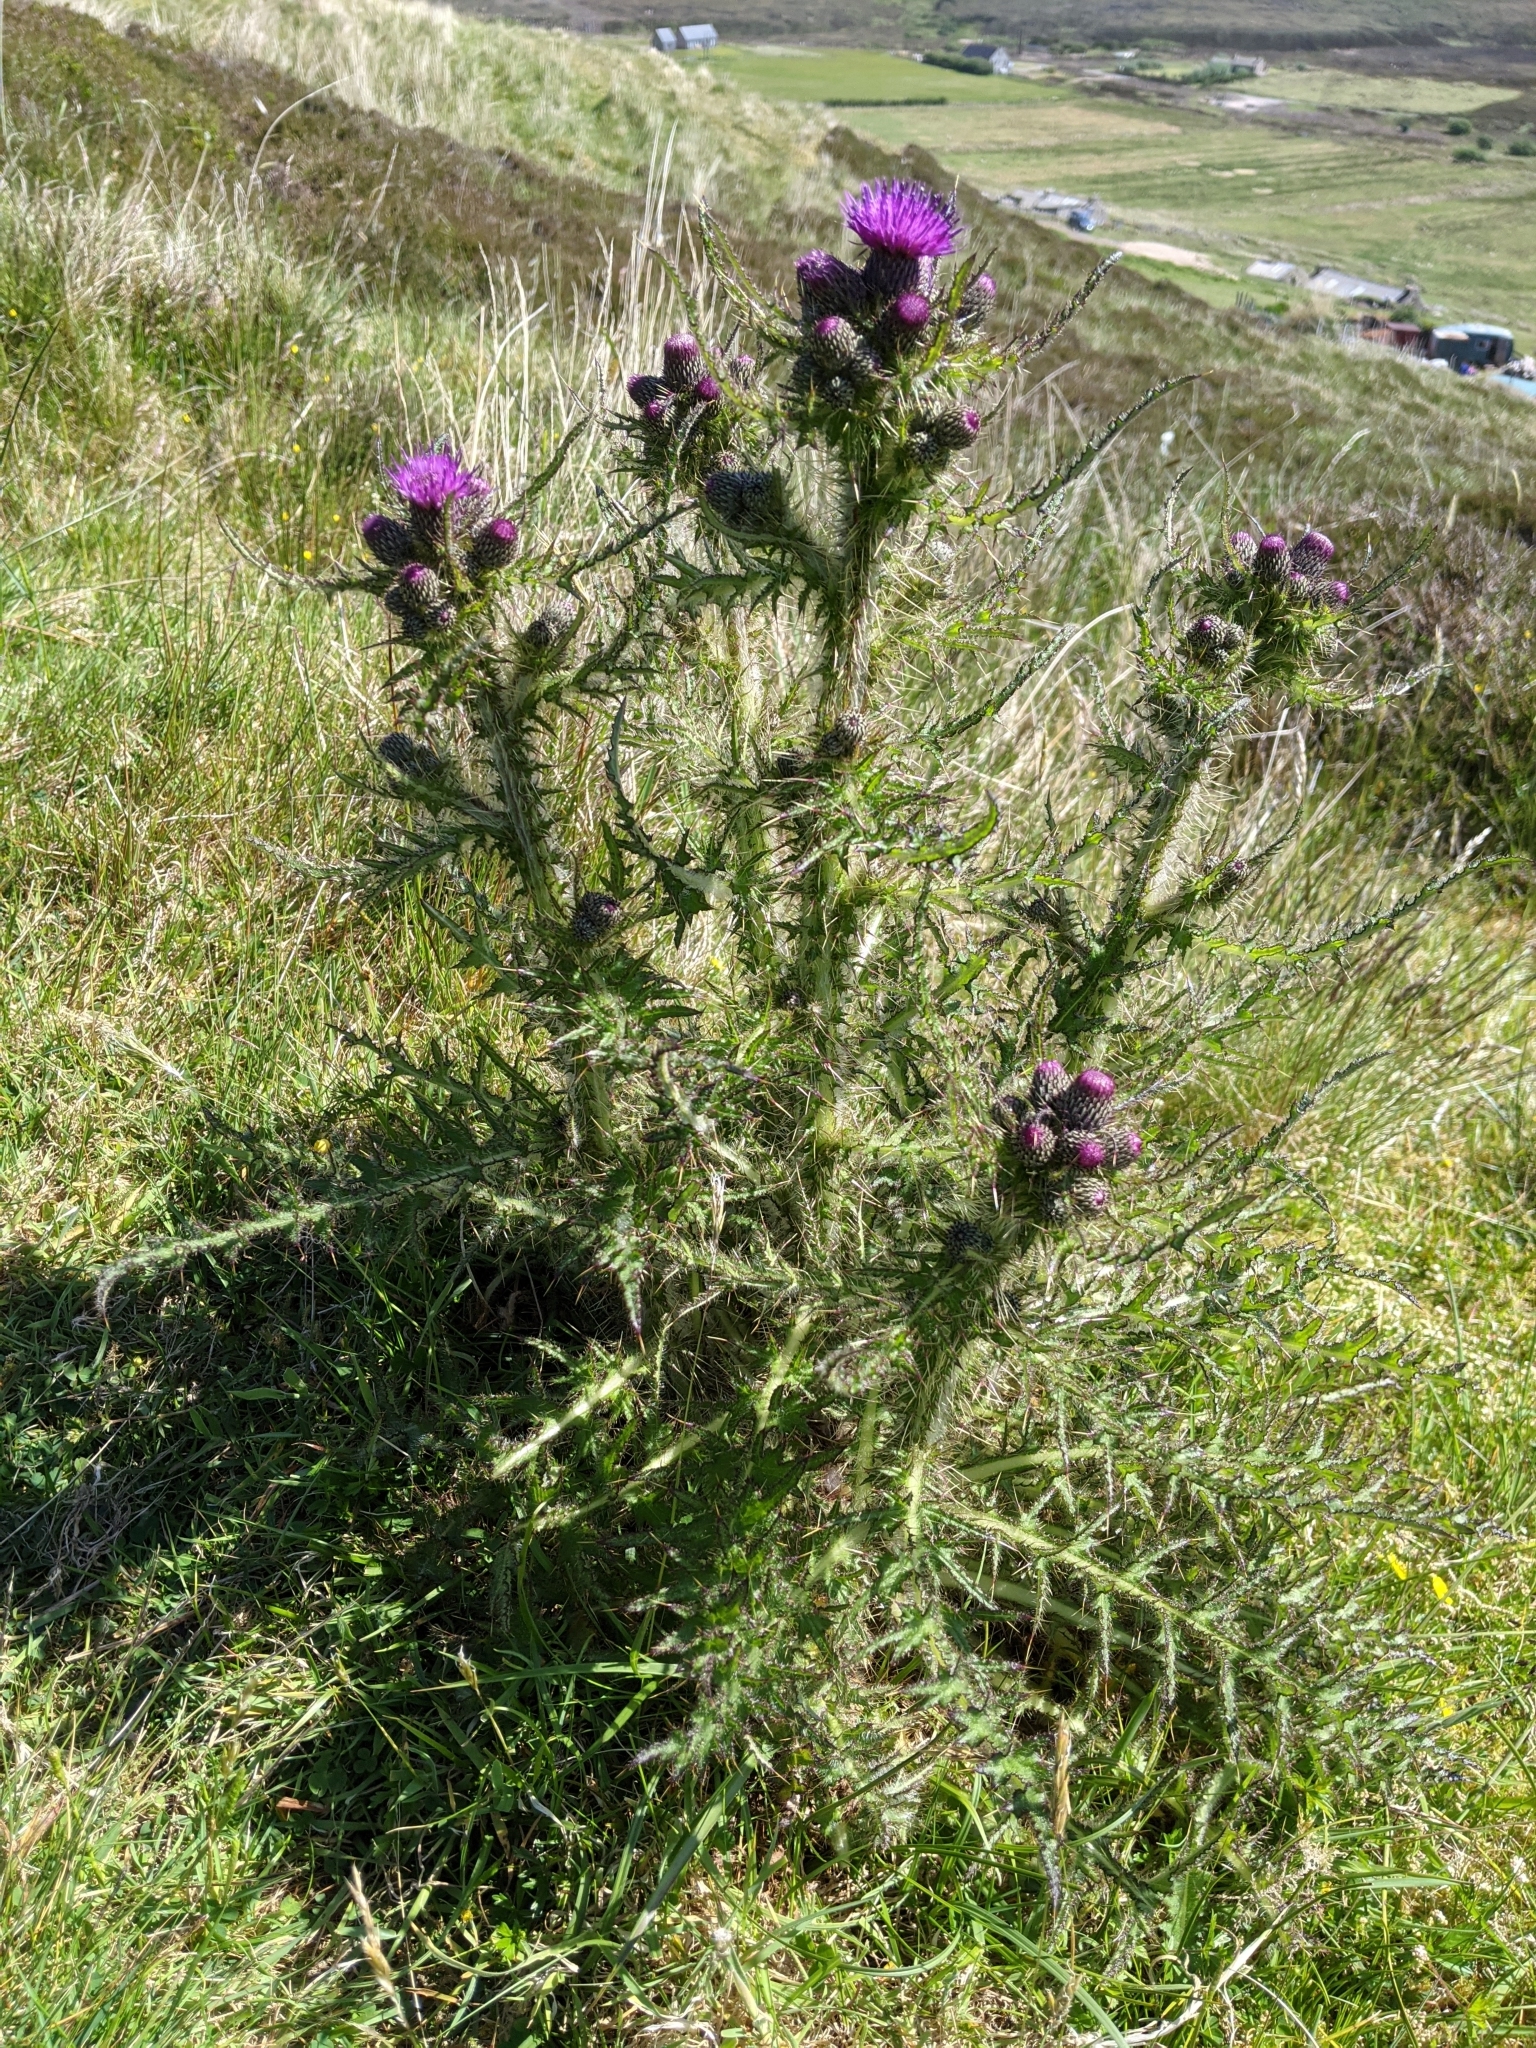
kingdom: Plantae
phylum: Tracheophyta
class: Magnoliopsida
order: Asterales
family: Asteraceae
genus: Cirsium
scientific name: Cirsium palustre
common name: Marsh thistle
